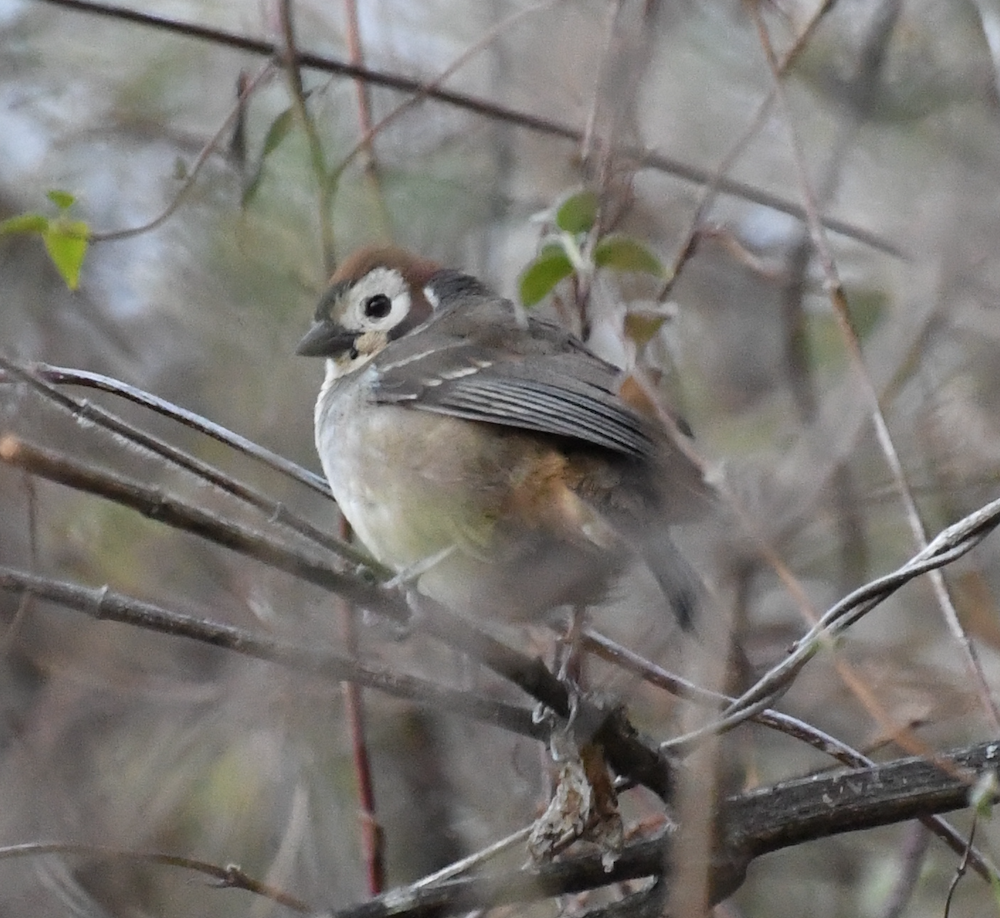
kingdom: Animalia
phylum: Chordata
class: Aves
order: Passeriformes
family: Passerellidae
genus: Melozone
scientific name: Melozone biarcuata
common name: Prevost's ground-sparrow
